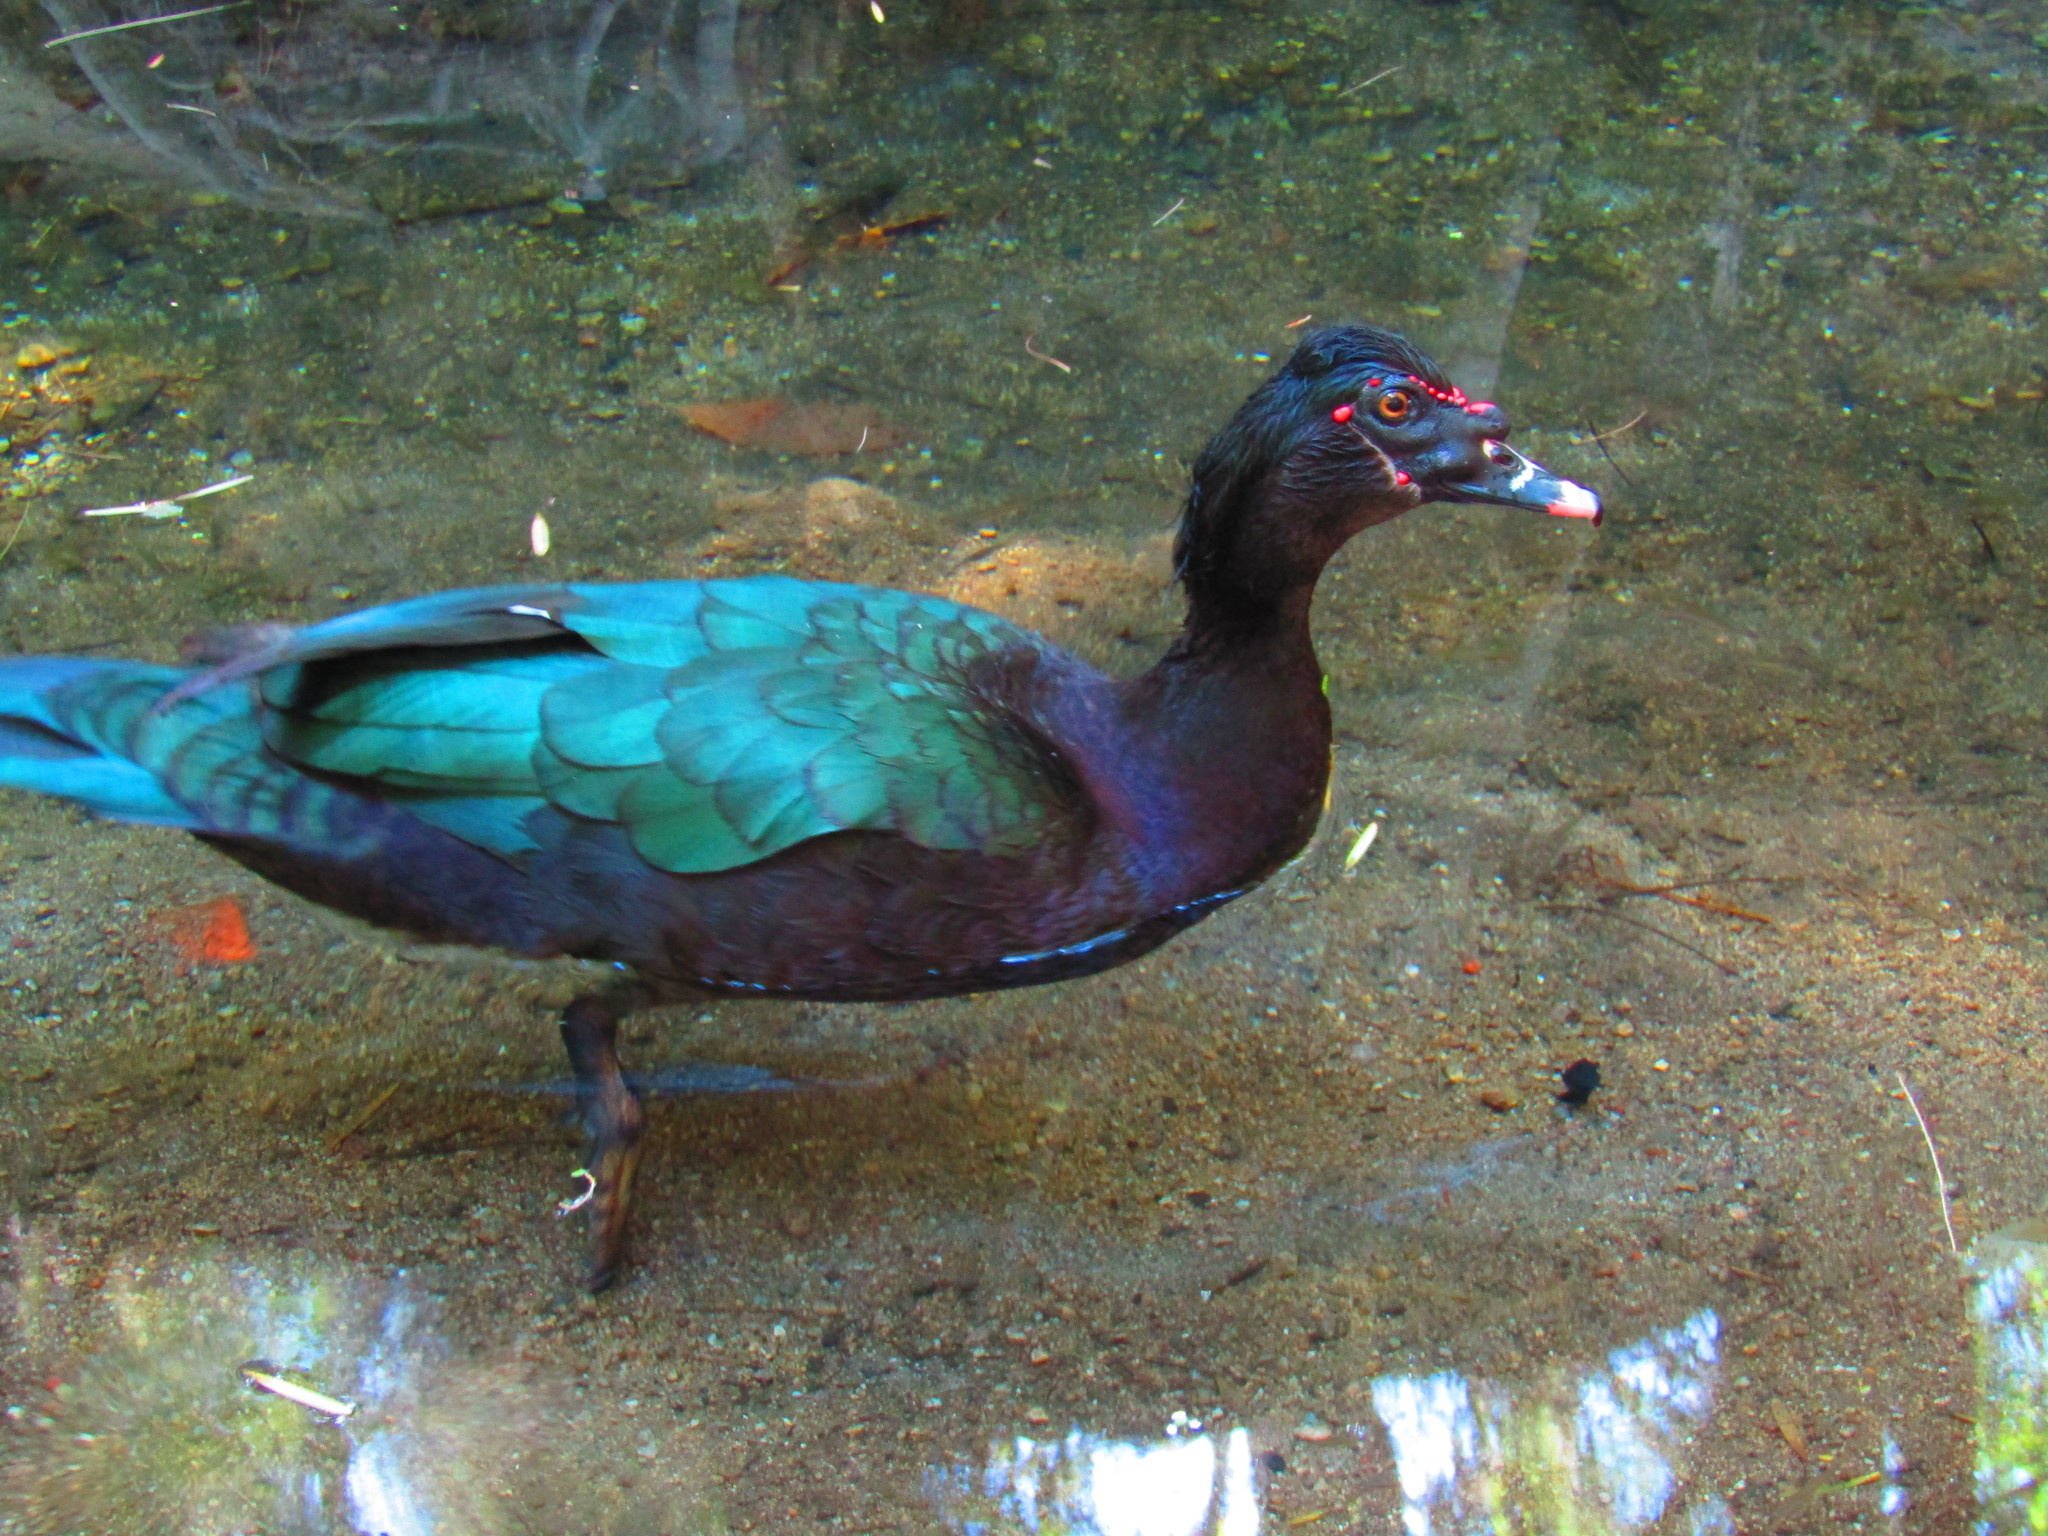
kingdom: Animalia
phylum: Chordata
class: Aves
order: Anseriformes
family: Anatidae
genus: Cairina
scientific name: Cairina moschata
